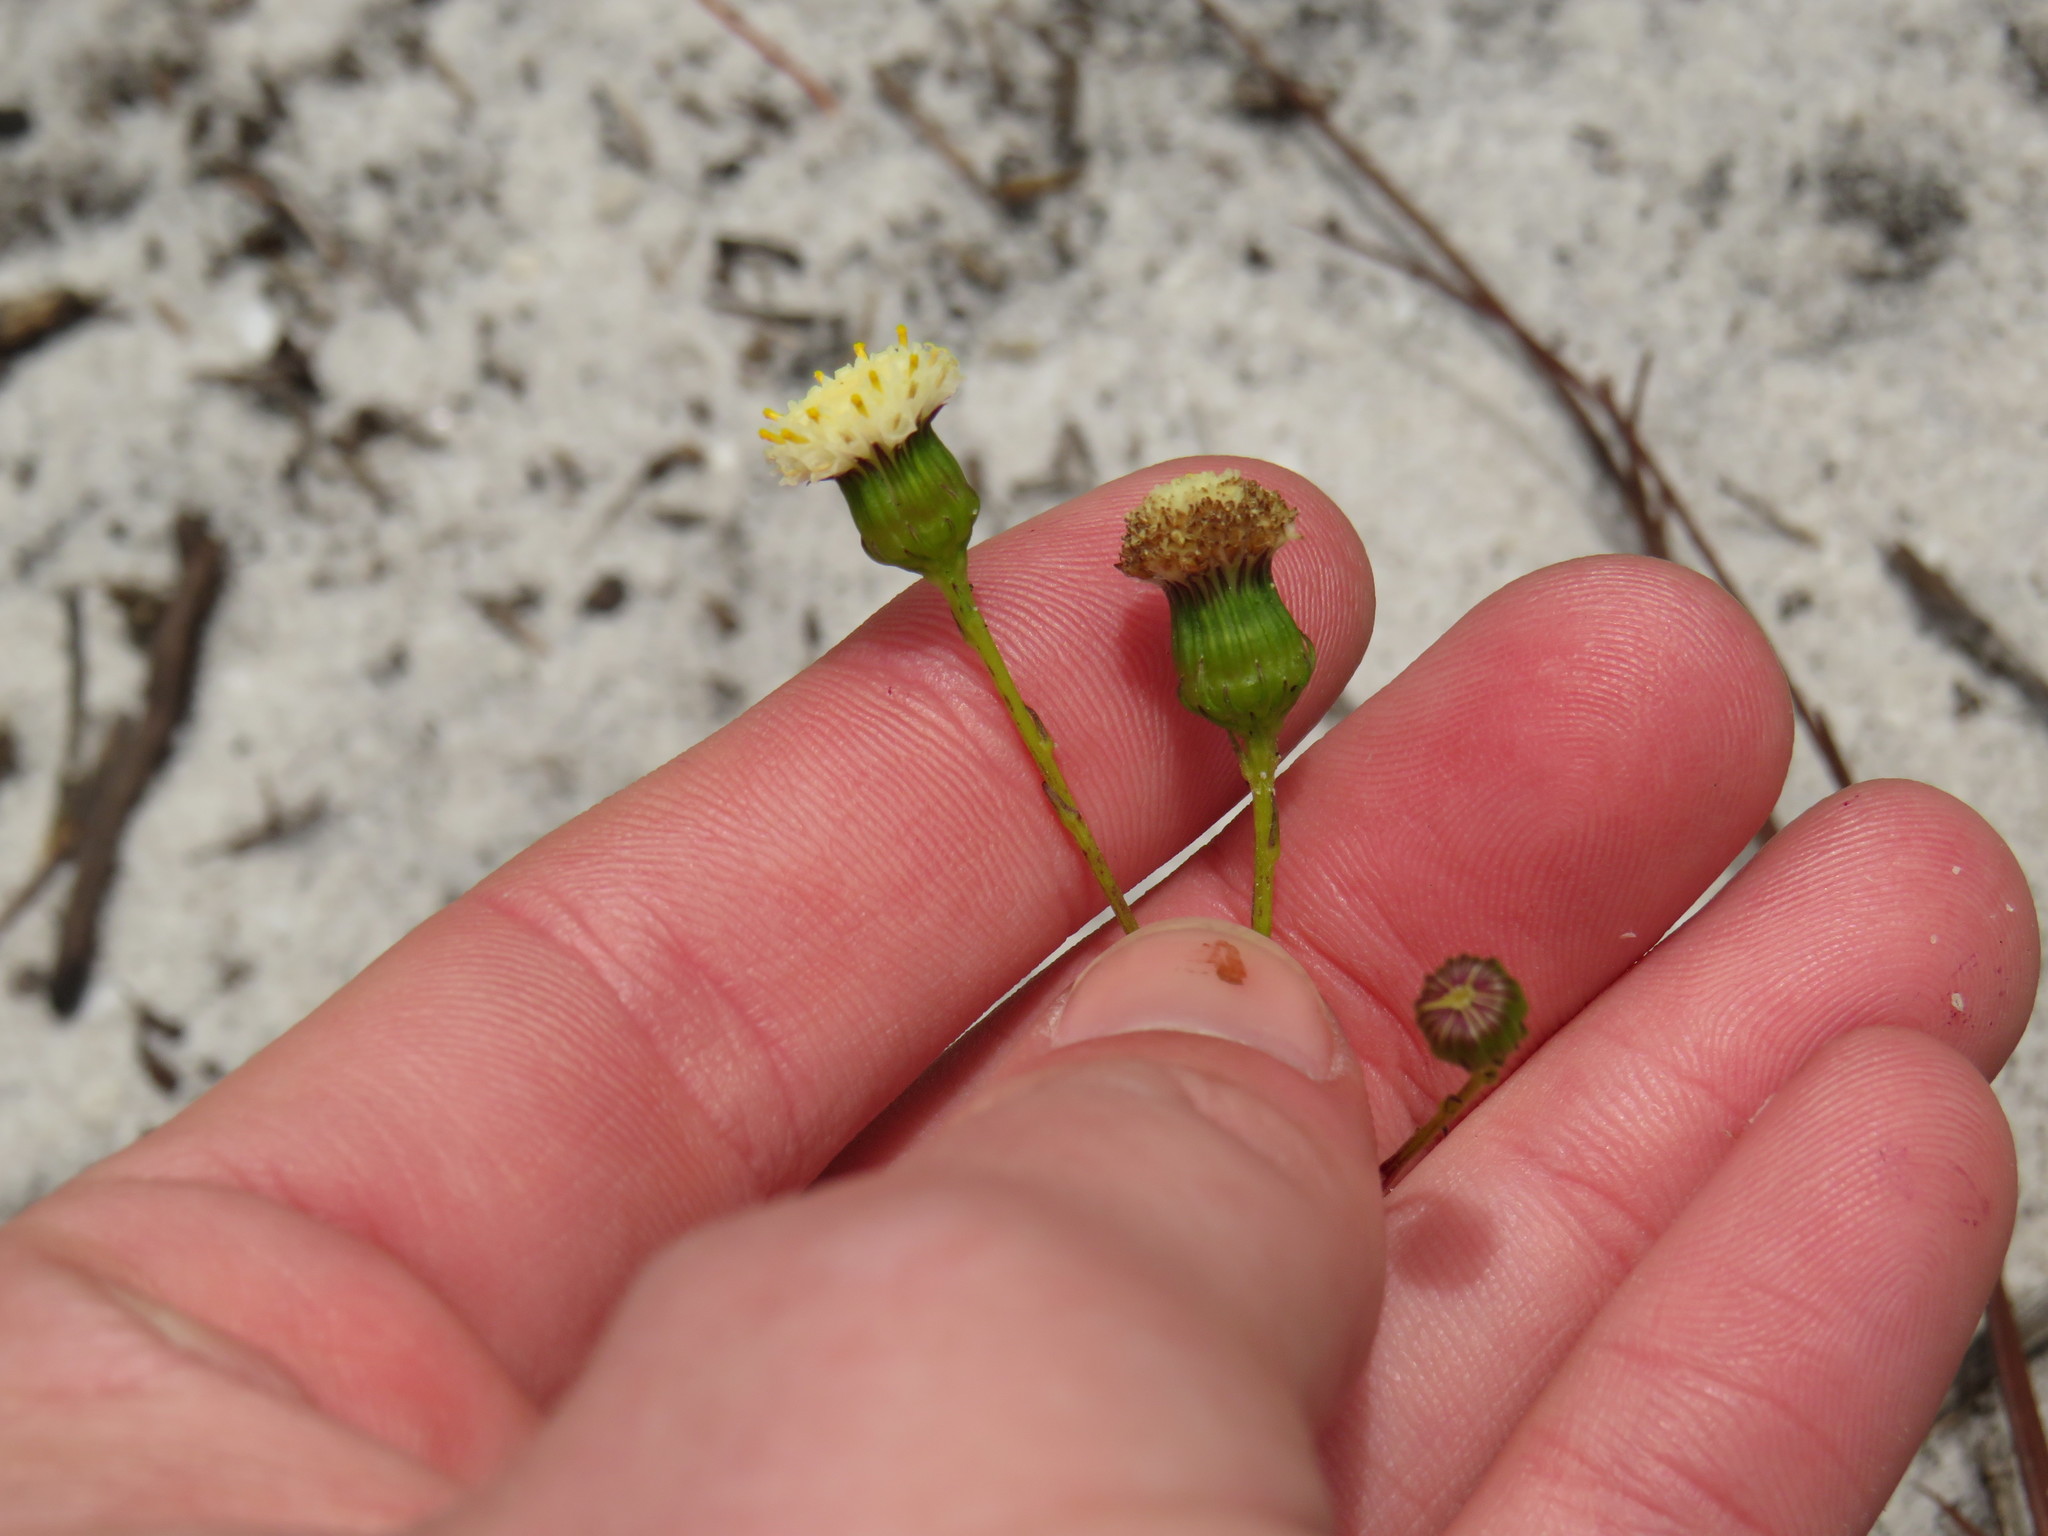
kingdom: Plantae
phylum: Tracheophyta
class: Magnoliopsida
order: Asterales
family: Asteraceae
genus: Senecio
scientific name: Senecio paniculatus
